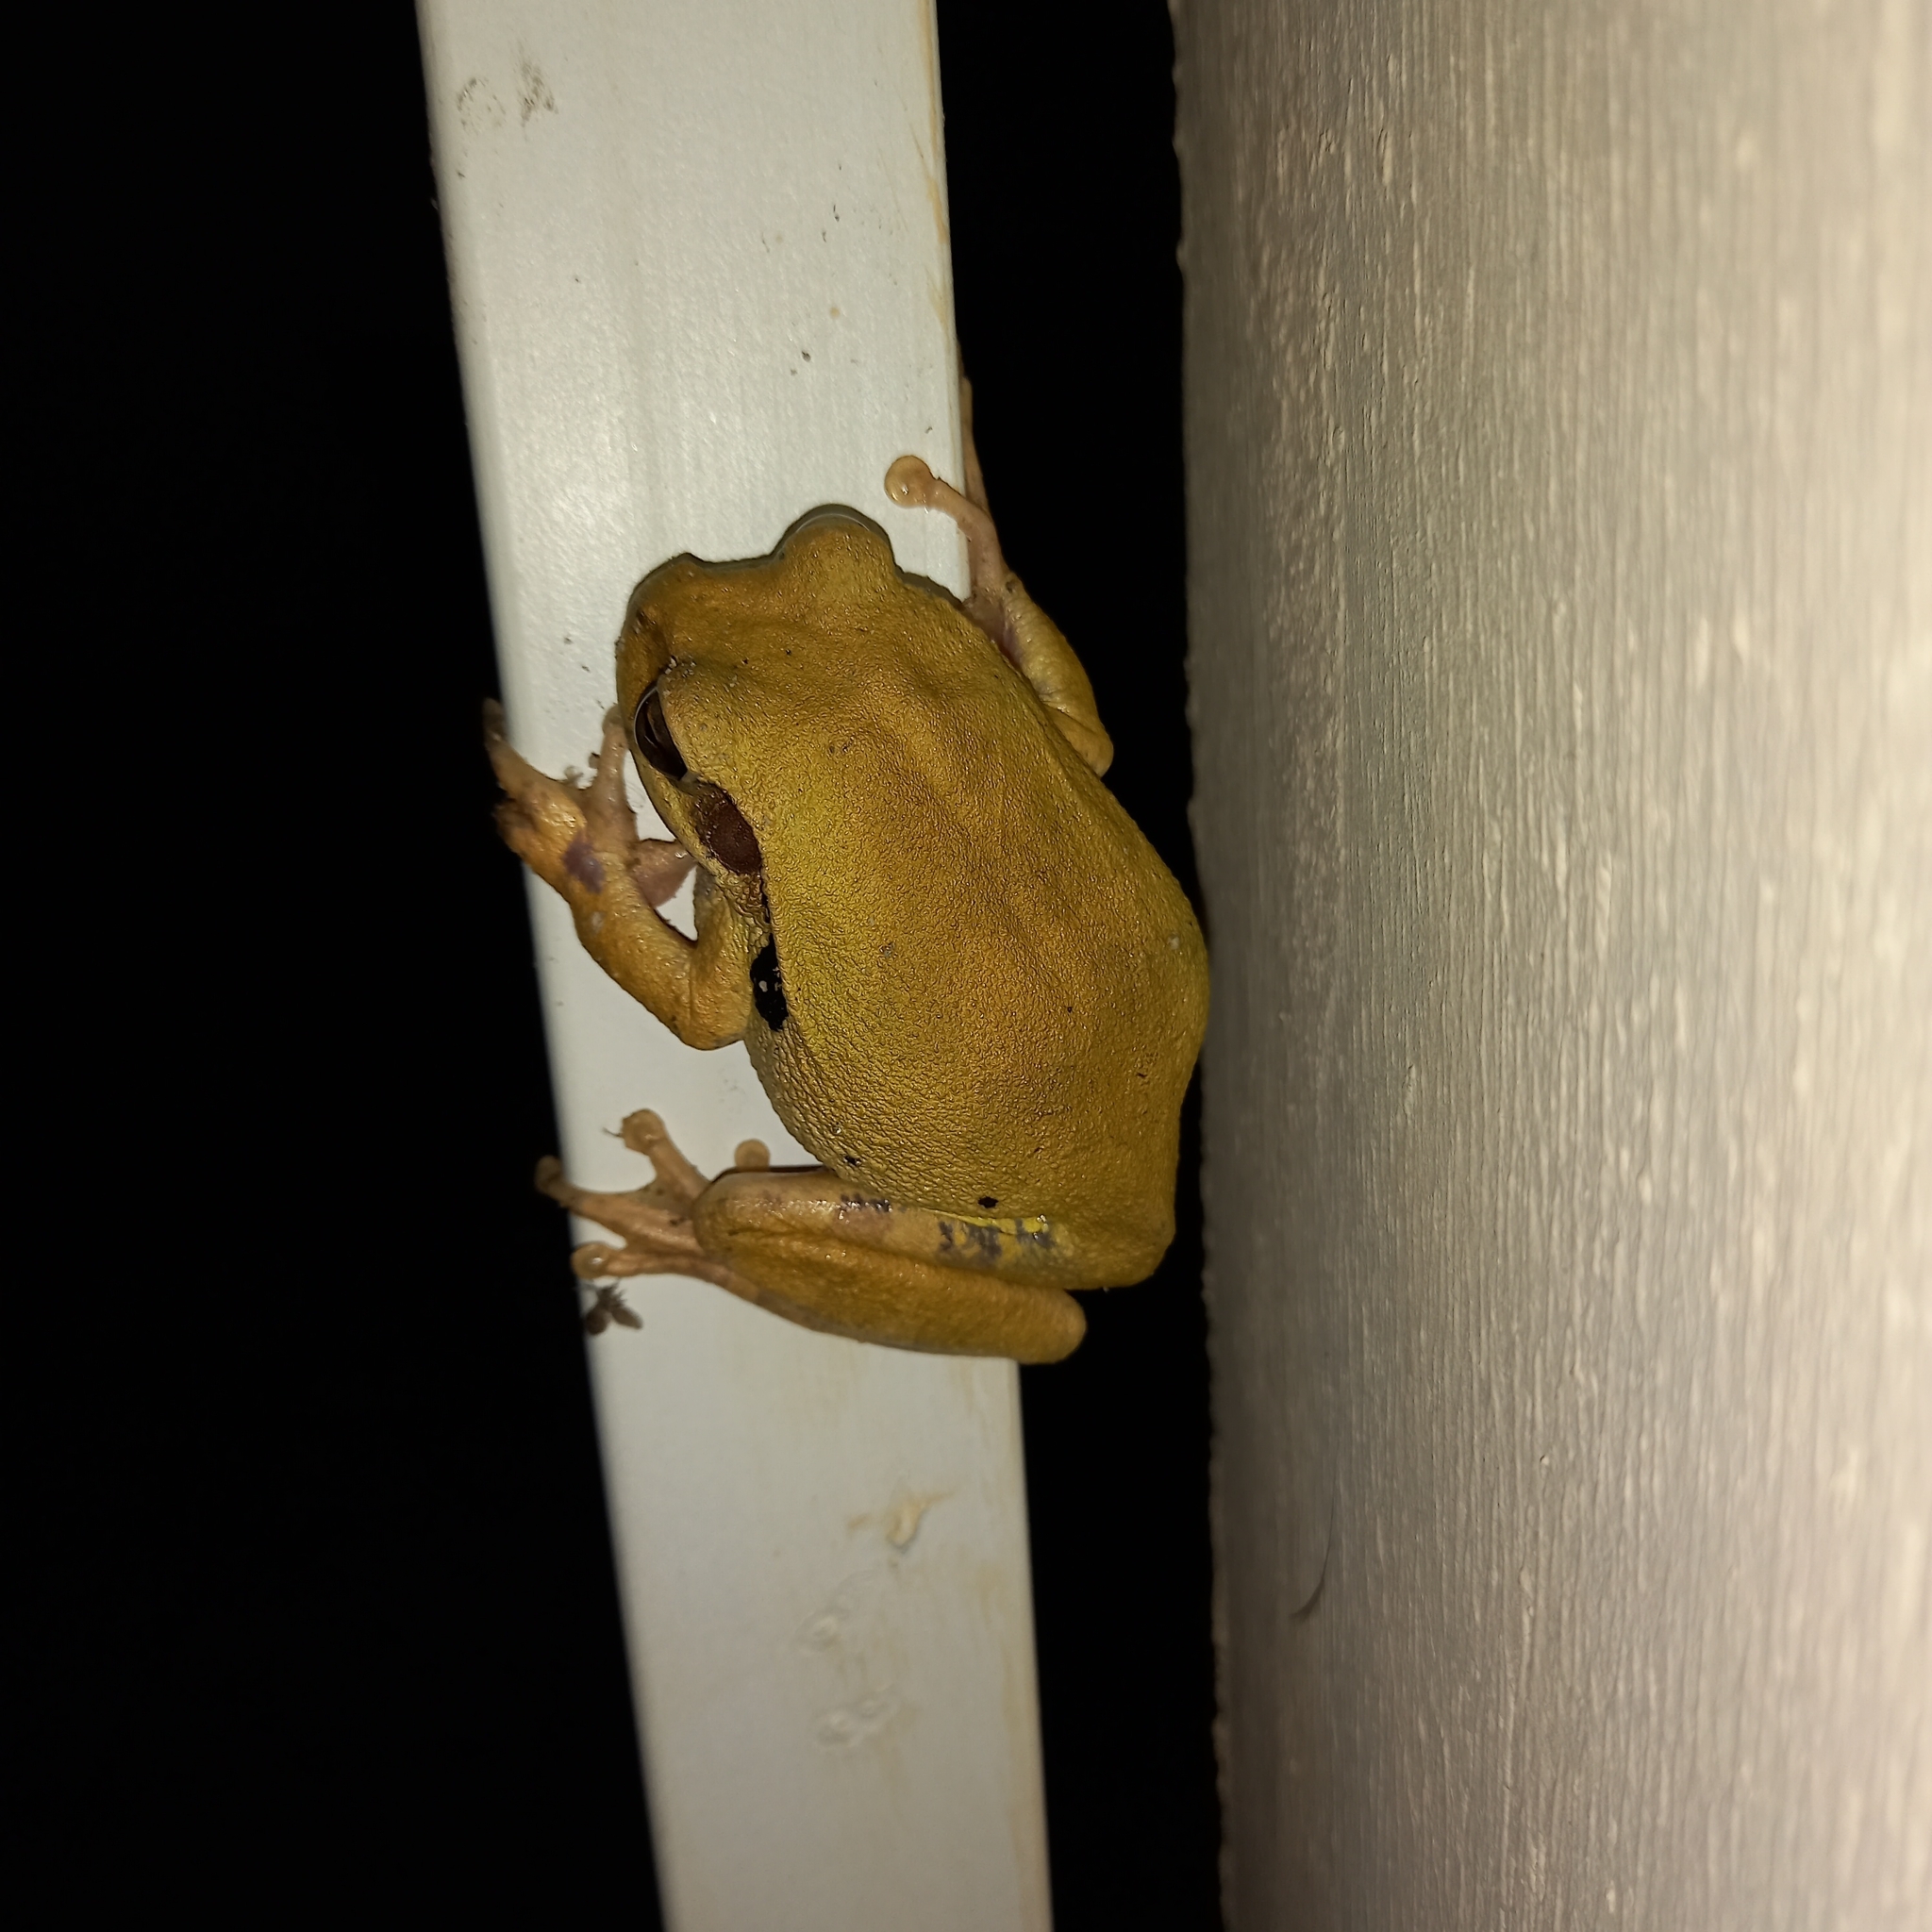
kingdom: Animalia
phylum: Chordata
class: Amphibia
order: Anura
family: Hylidae
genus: Smilisca
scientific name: Smilisca baudinii
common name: Mexican smilisca
